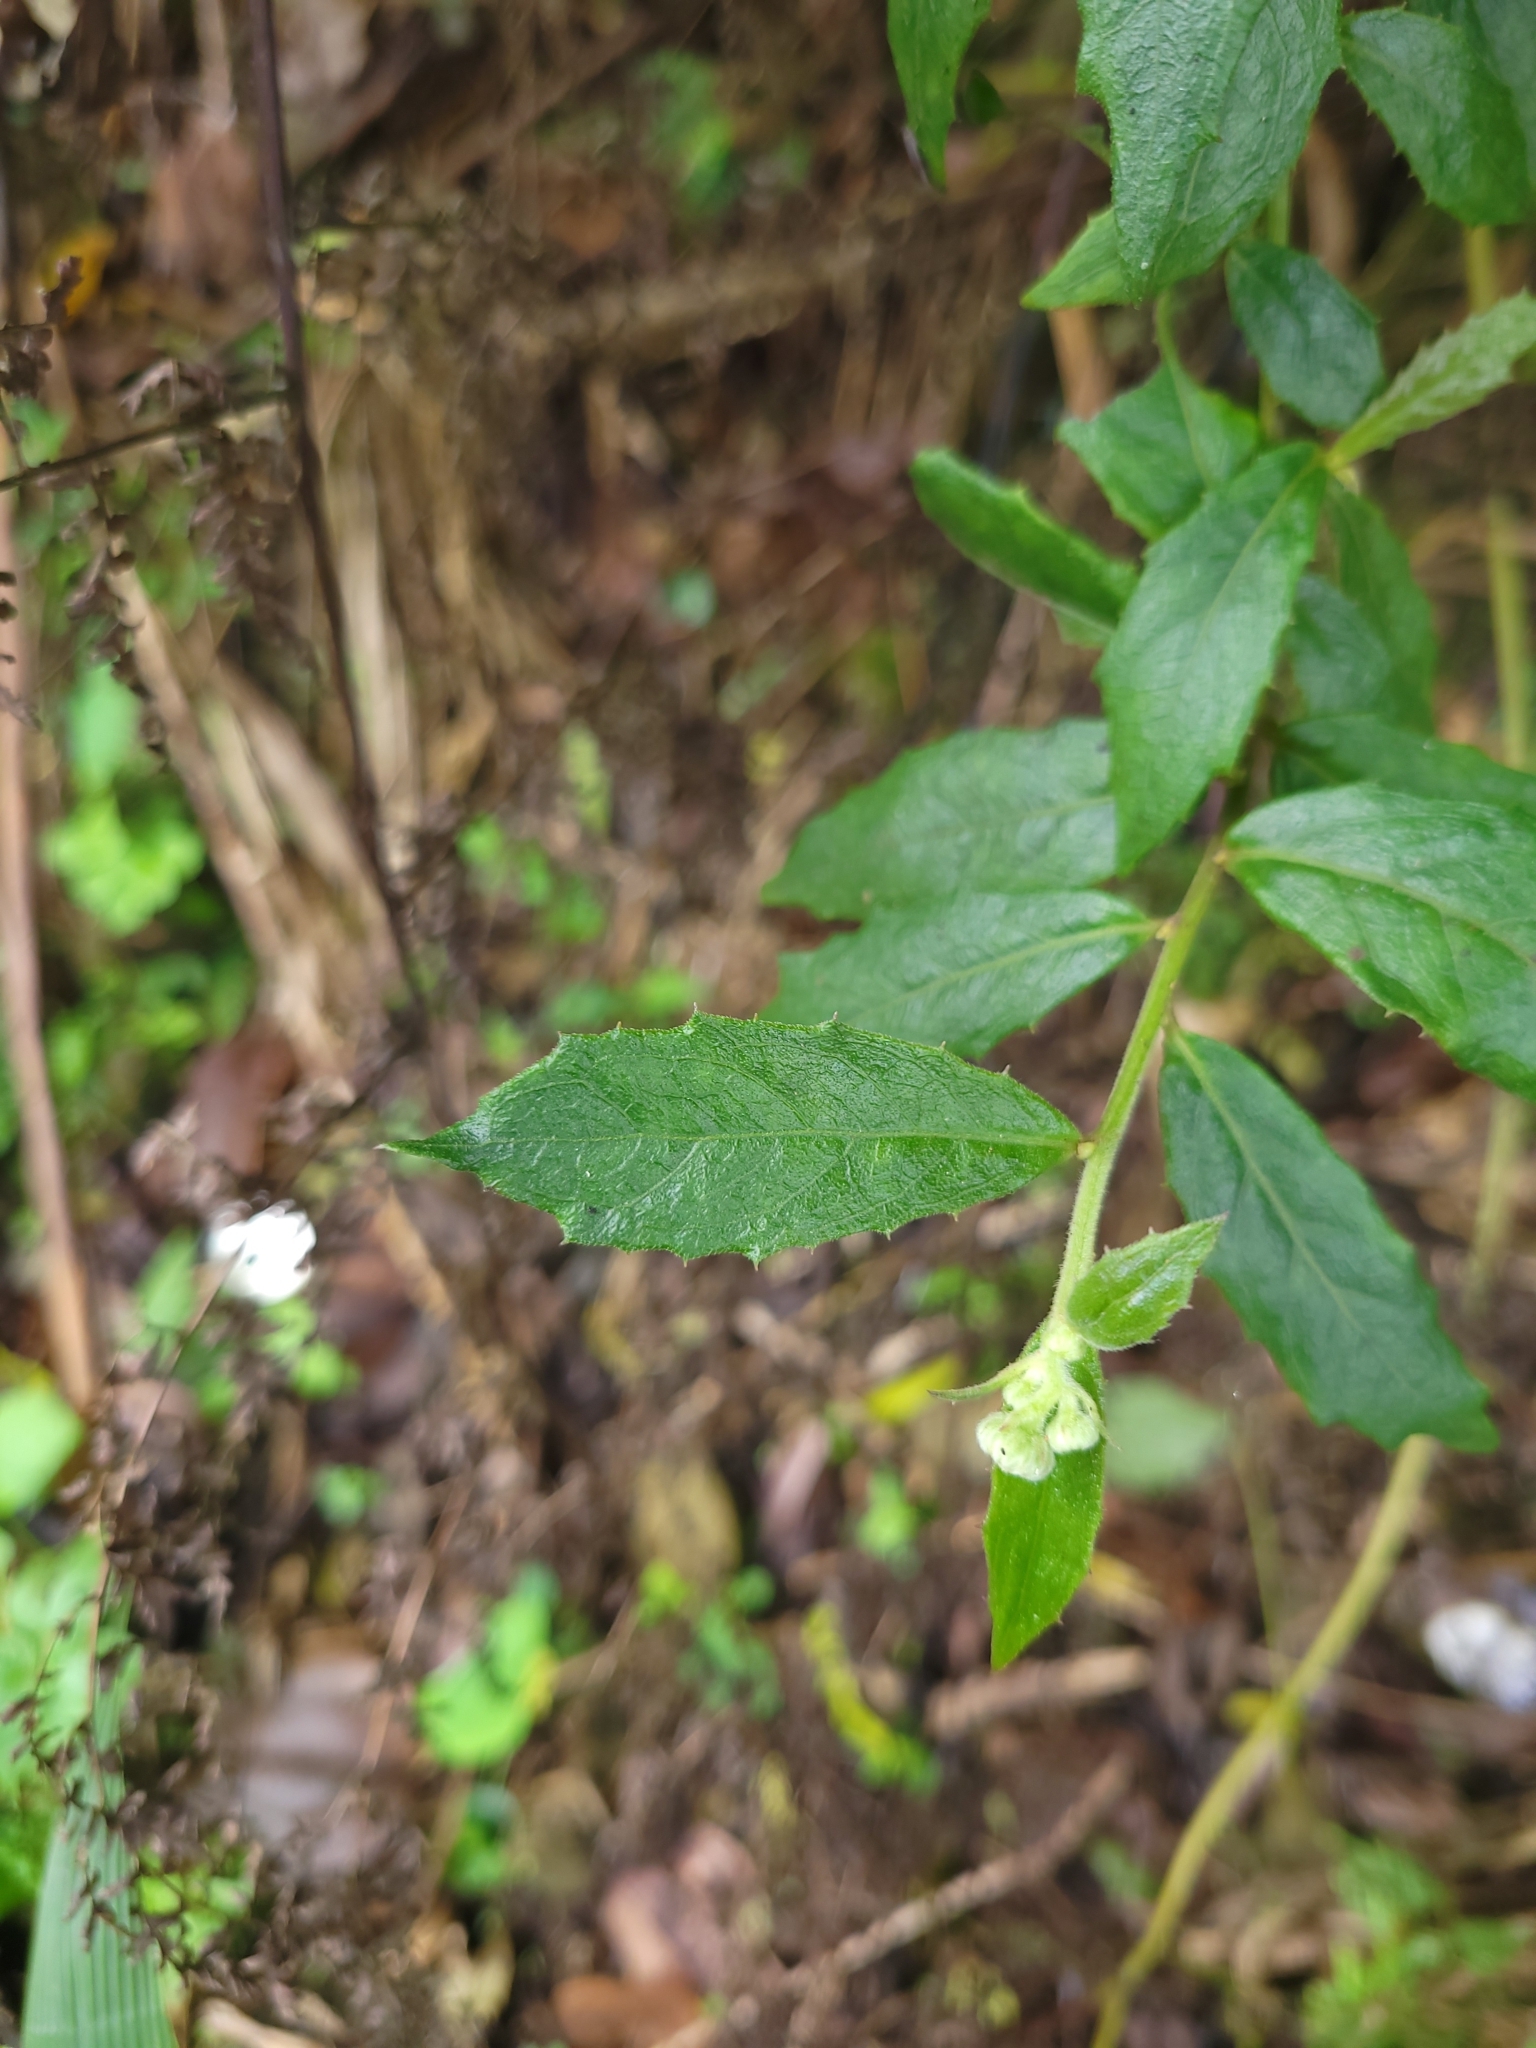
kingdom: Plantae
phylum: Tracheophyta
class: Magnoliopsida
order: Asterales
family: Asteraceae
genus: Blumea
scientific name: Blumea megacephala
